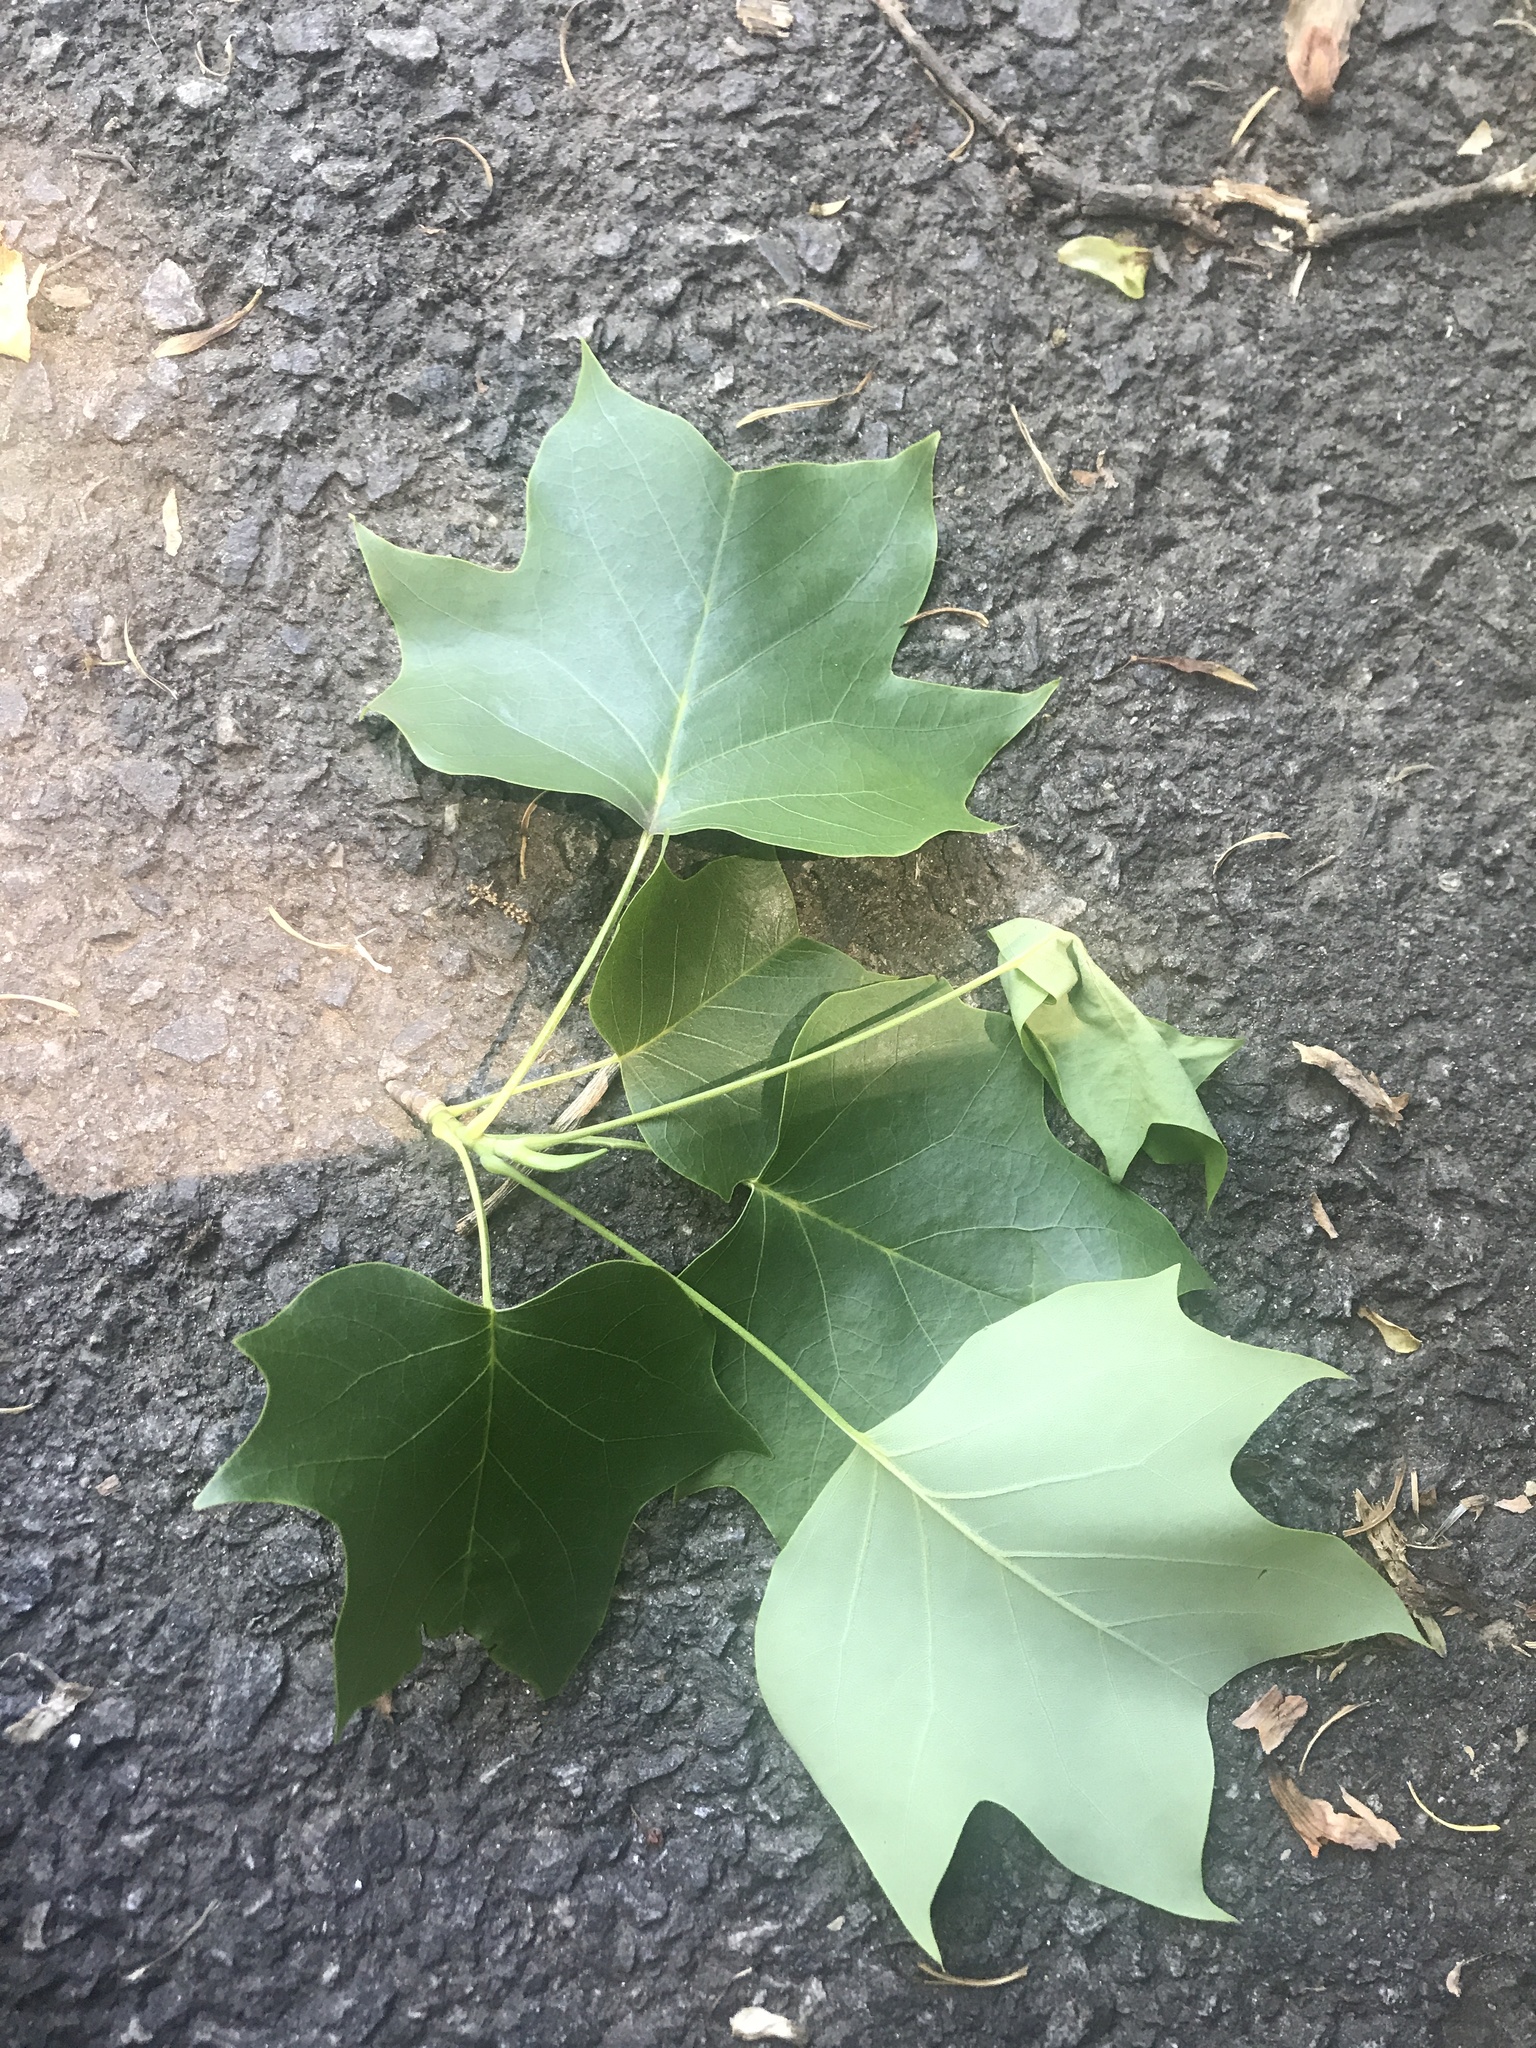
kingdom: Plantae
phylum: Tracheophyta
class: Magnoliopsida
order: Magnoliales
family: Magnoliaceae
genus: Liriodendron
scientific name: Liriodendron tulipifera
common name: Tulip tree
